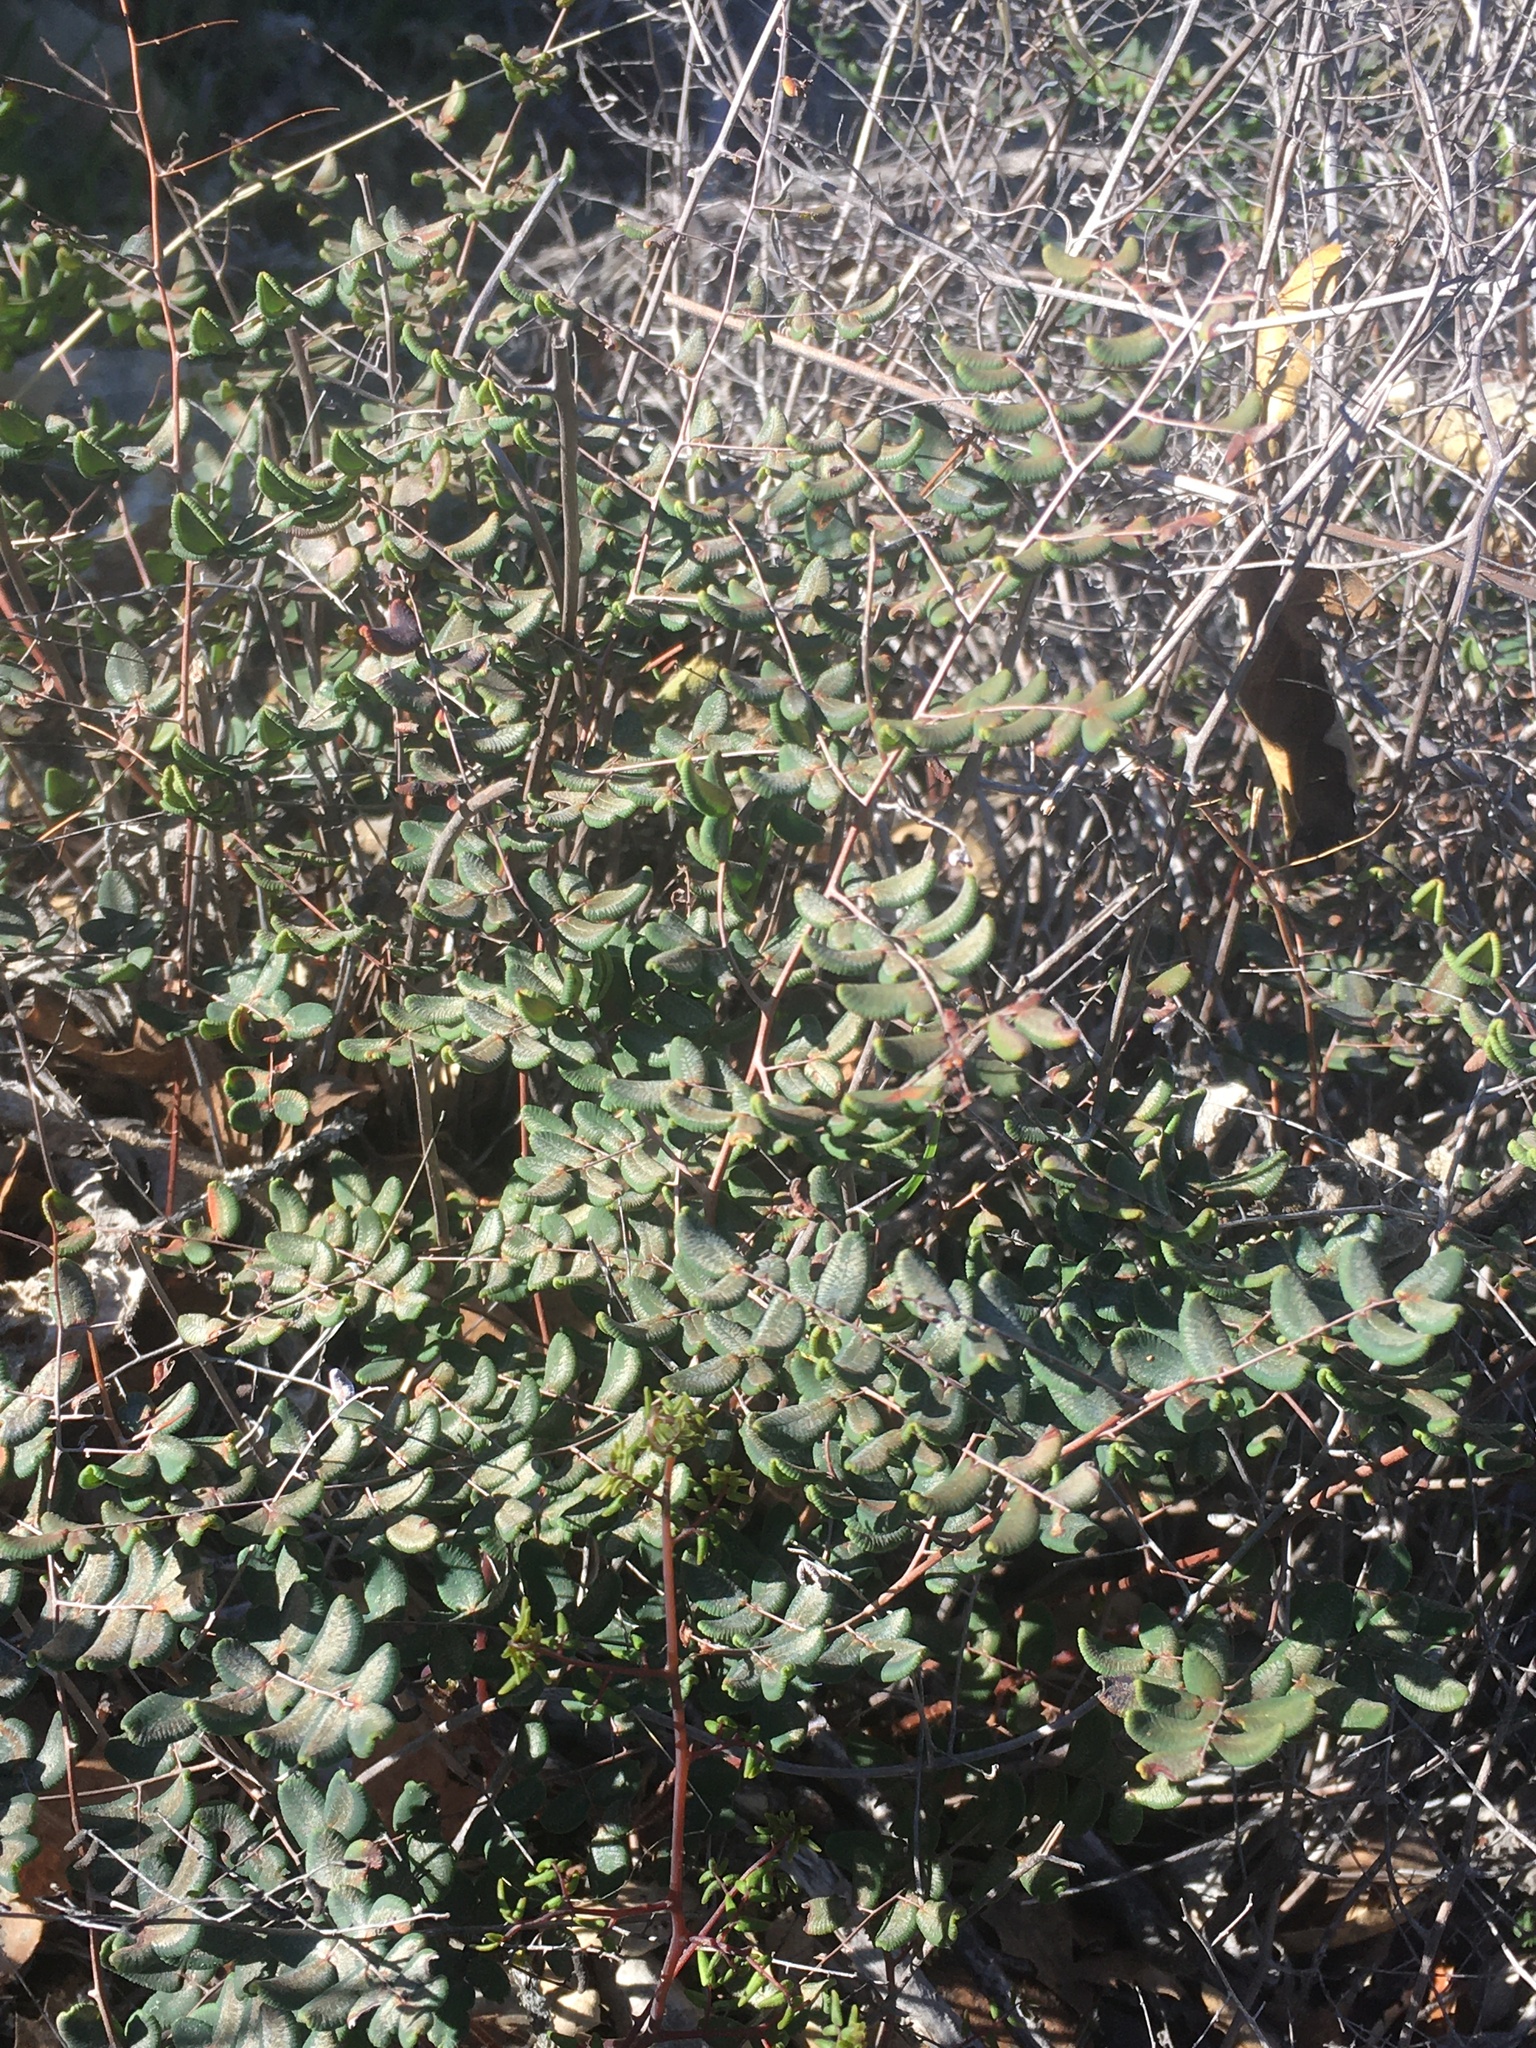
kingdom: Plantae
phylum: Tracheophyta
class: Polypodiopsida
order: Polypodiales
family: Pteridaceae
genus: Pellaea
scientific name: Pellaea andromedifolia
